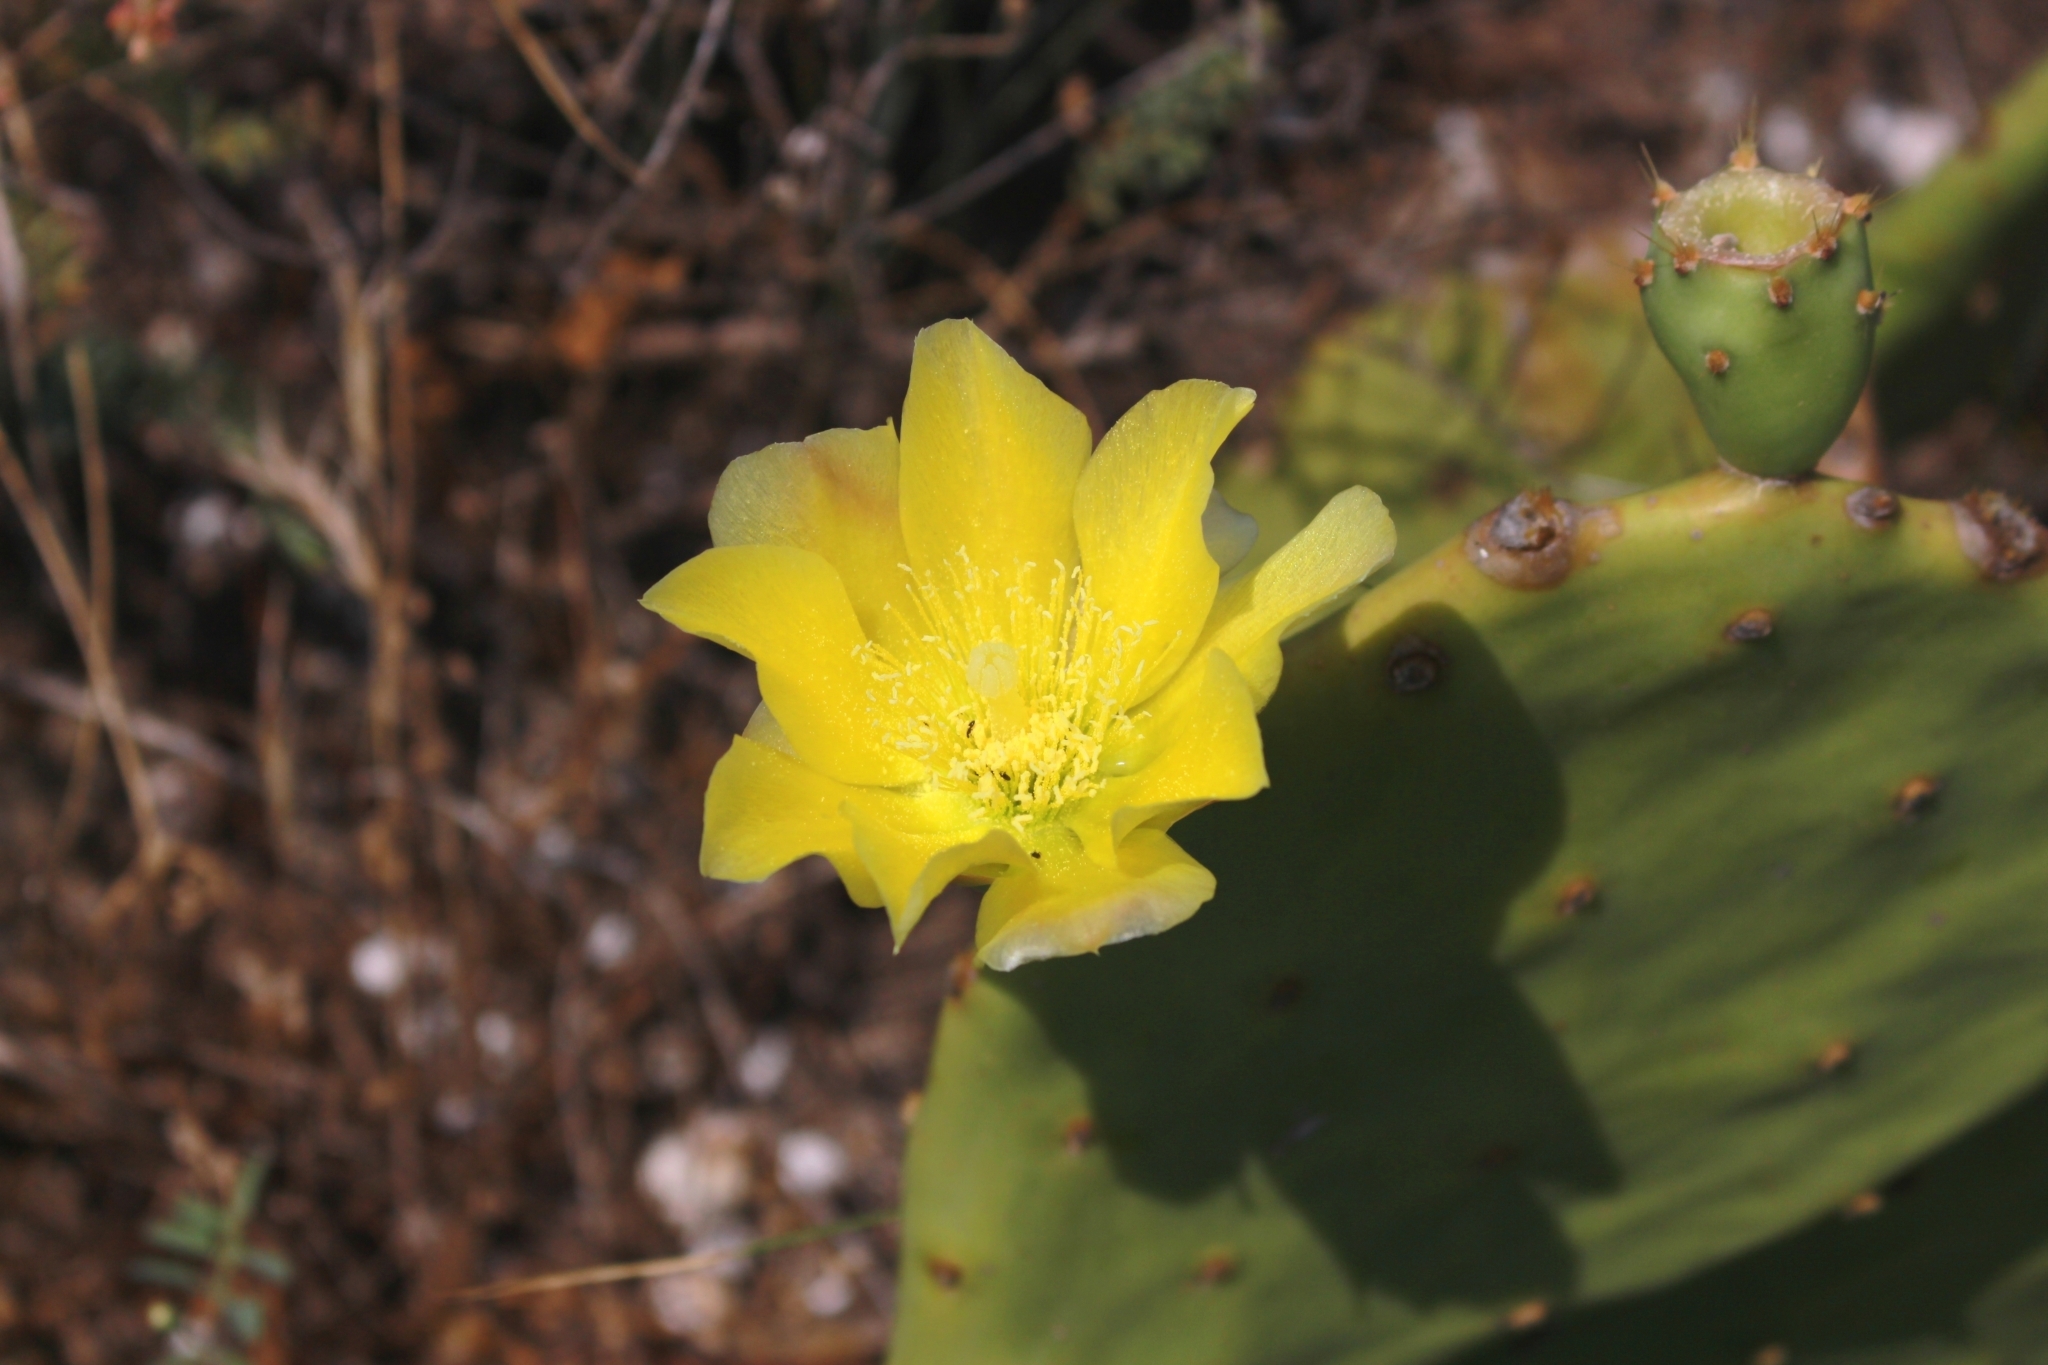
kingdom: Plantae
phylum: Tracheophyta
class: Magnoliopsida
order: Caryophyllales
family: Cactaceae
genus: Opuntia
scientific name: Opuntia anahuacensis
